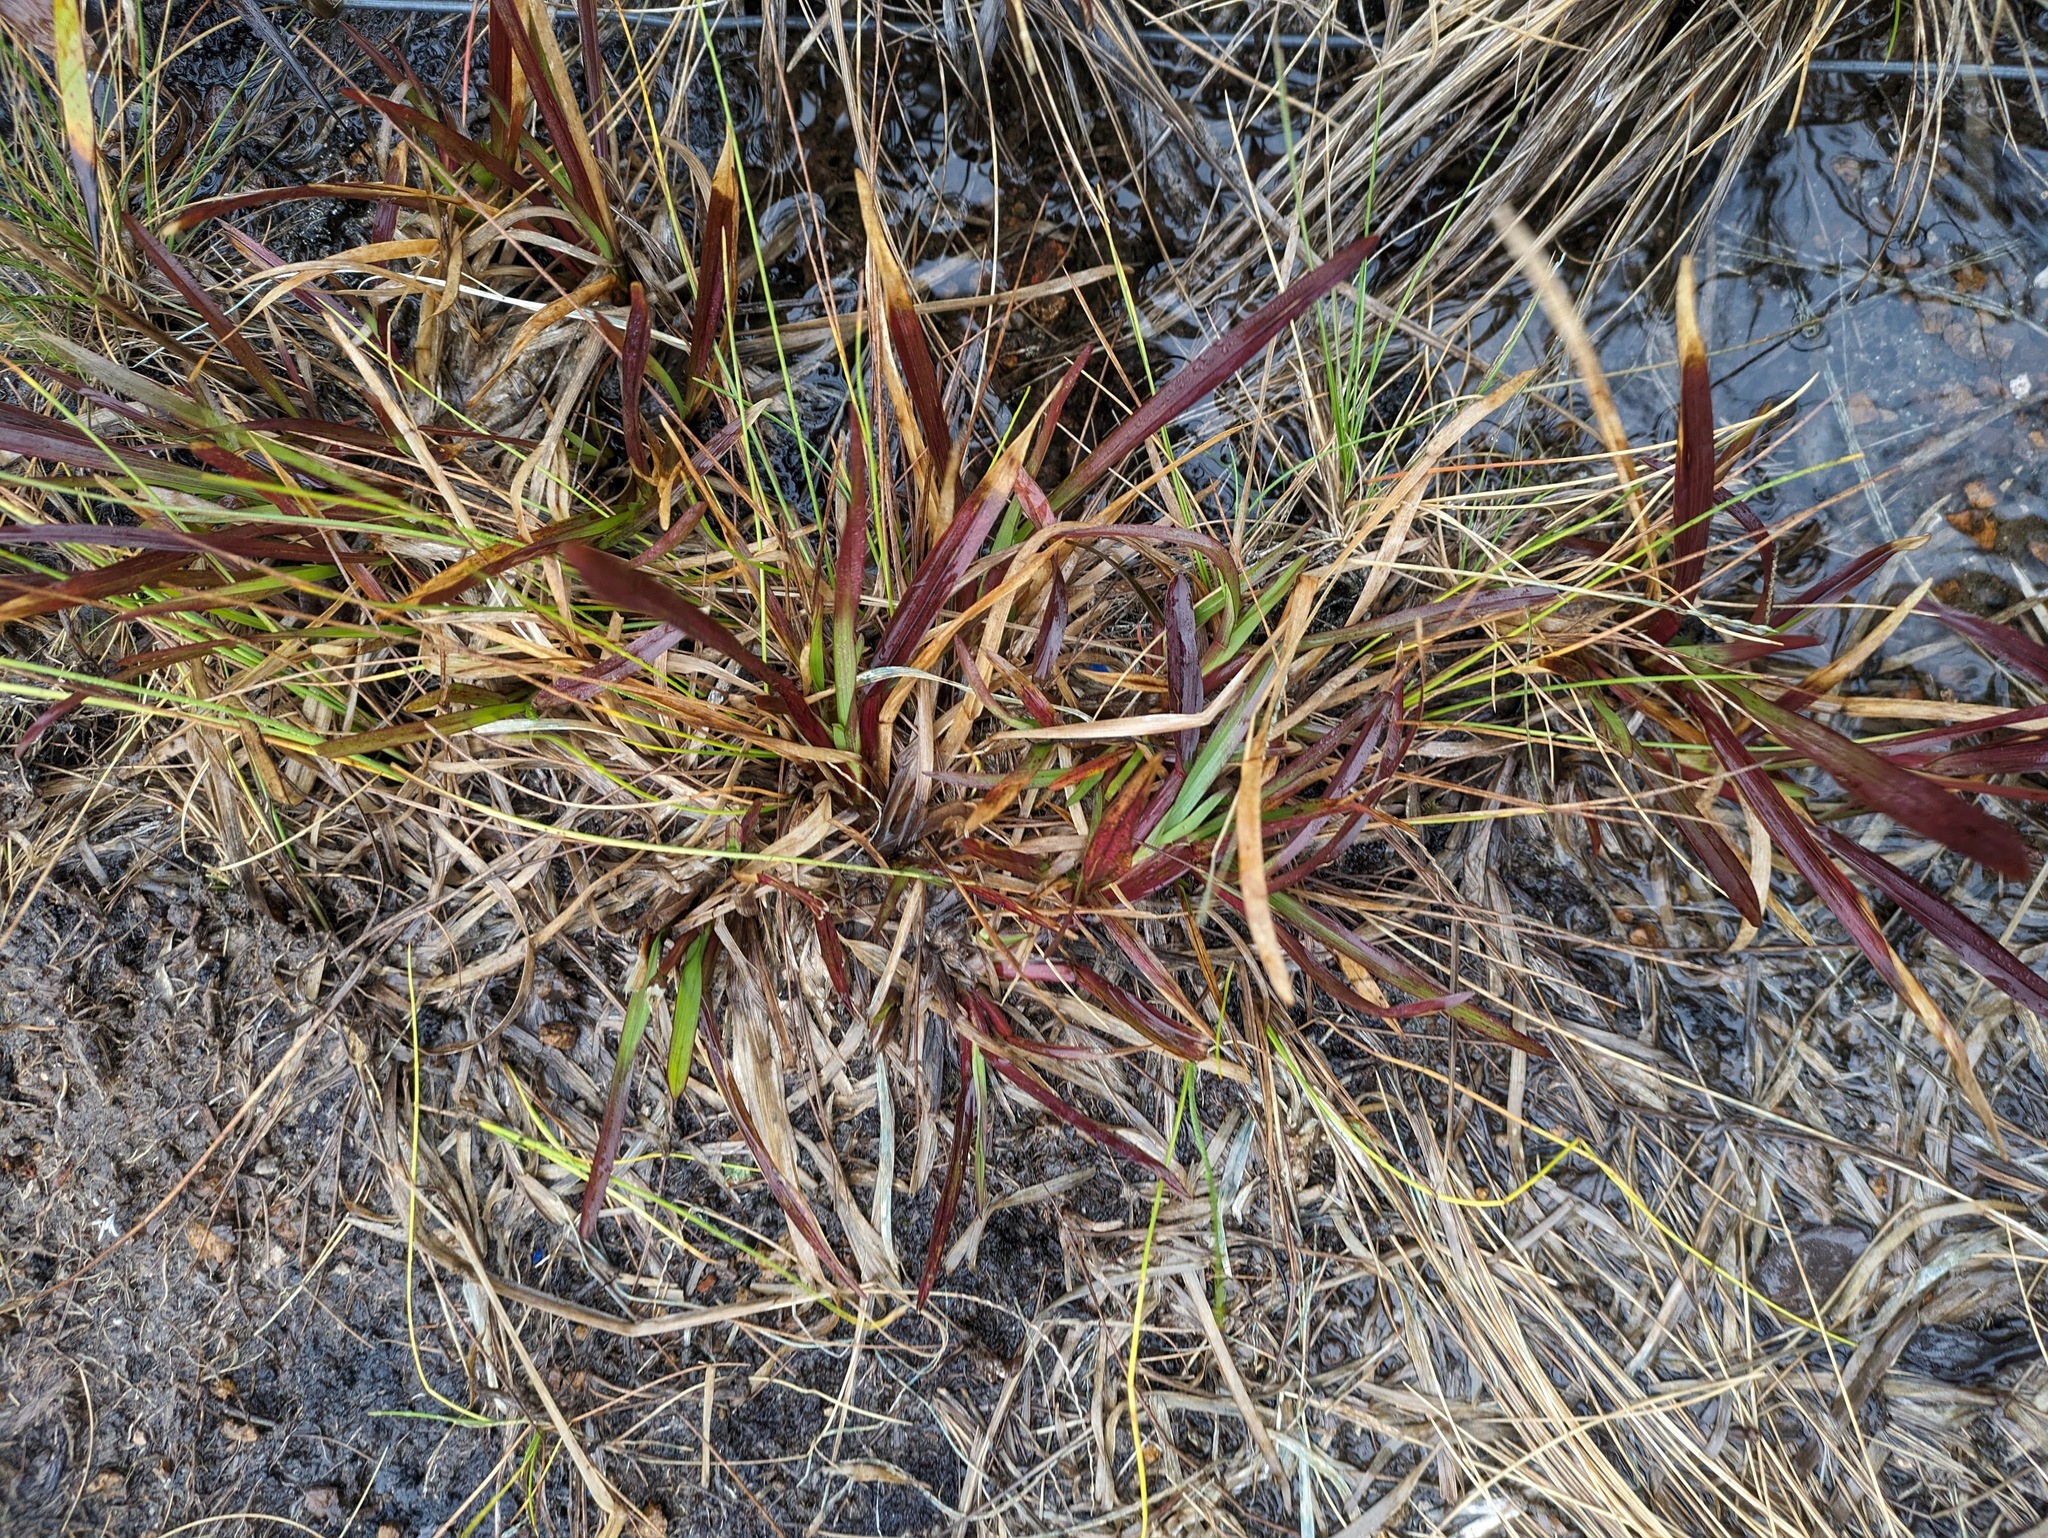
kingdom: Plantae
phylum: Tracheophyta
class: Liliopsida
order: Poales
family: Poaceae
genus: Axonopus
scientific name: Axonopus fissifolius
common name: Common carpetgrass
